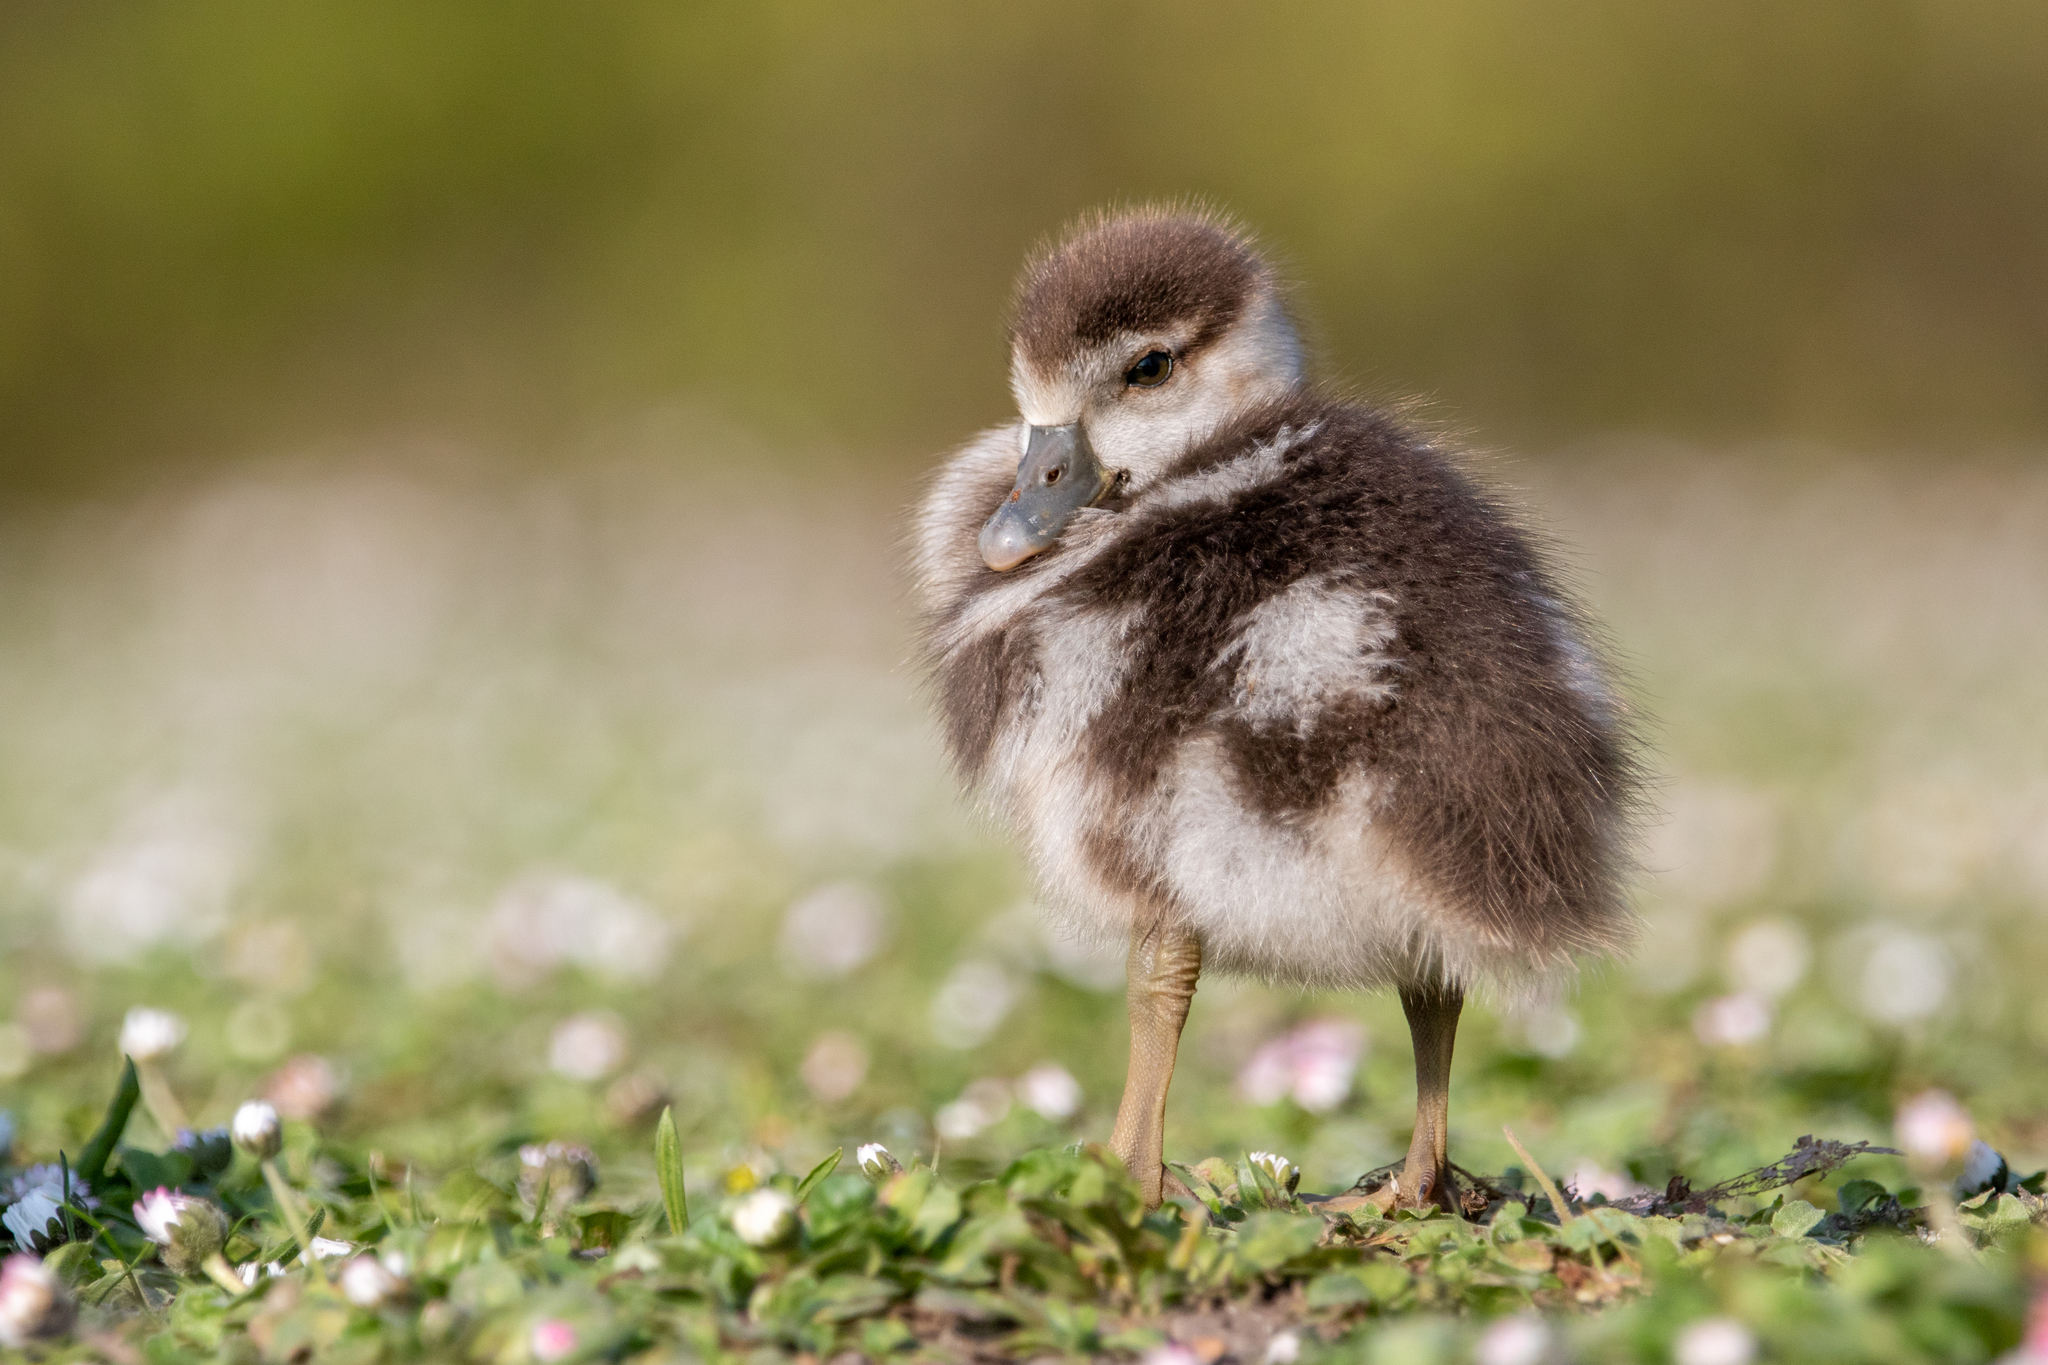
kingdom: Animalia
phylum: Chordata
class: Aves
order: Anseriformes
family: Anatidae
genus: Alopochen
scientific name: Alopochen aegyptiaca
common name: Egyptian goose
